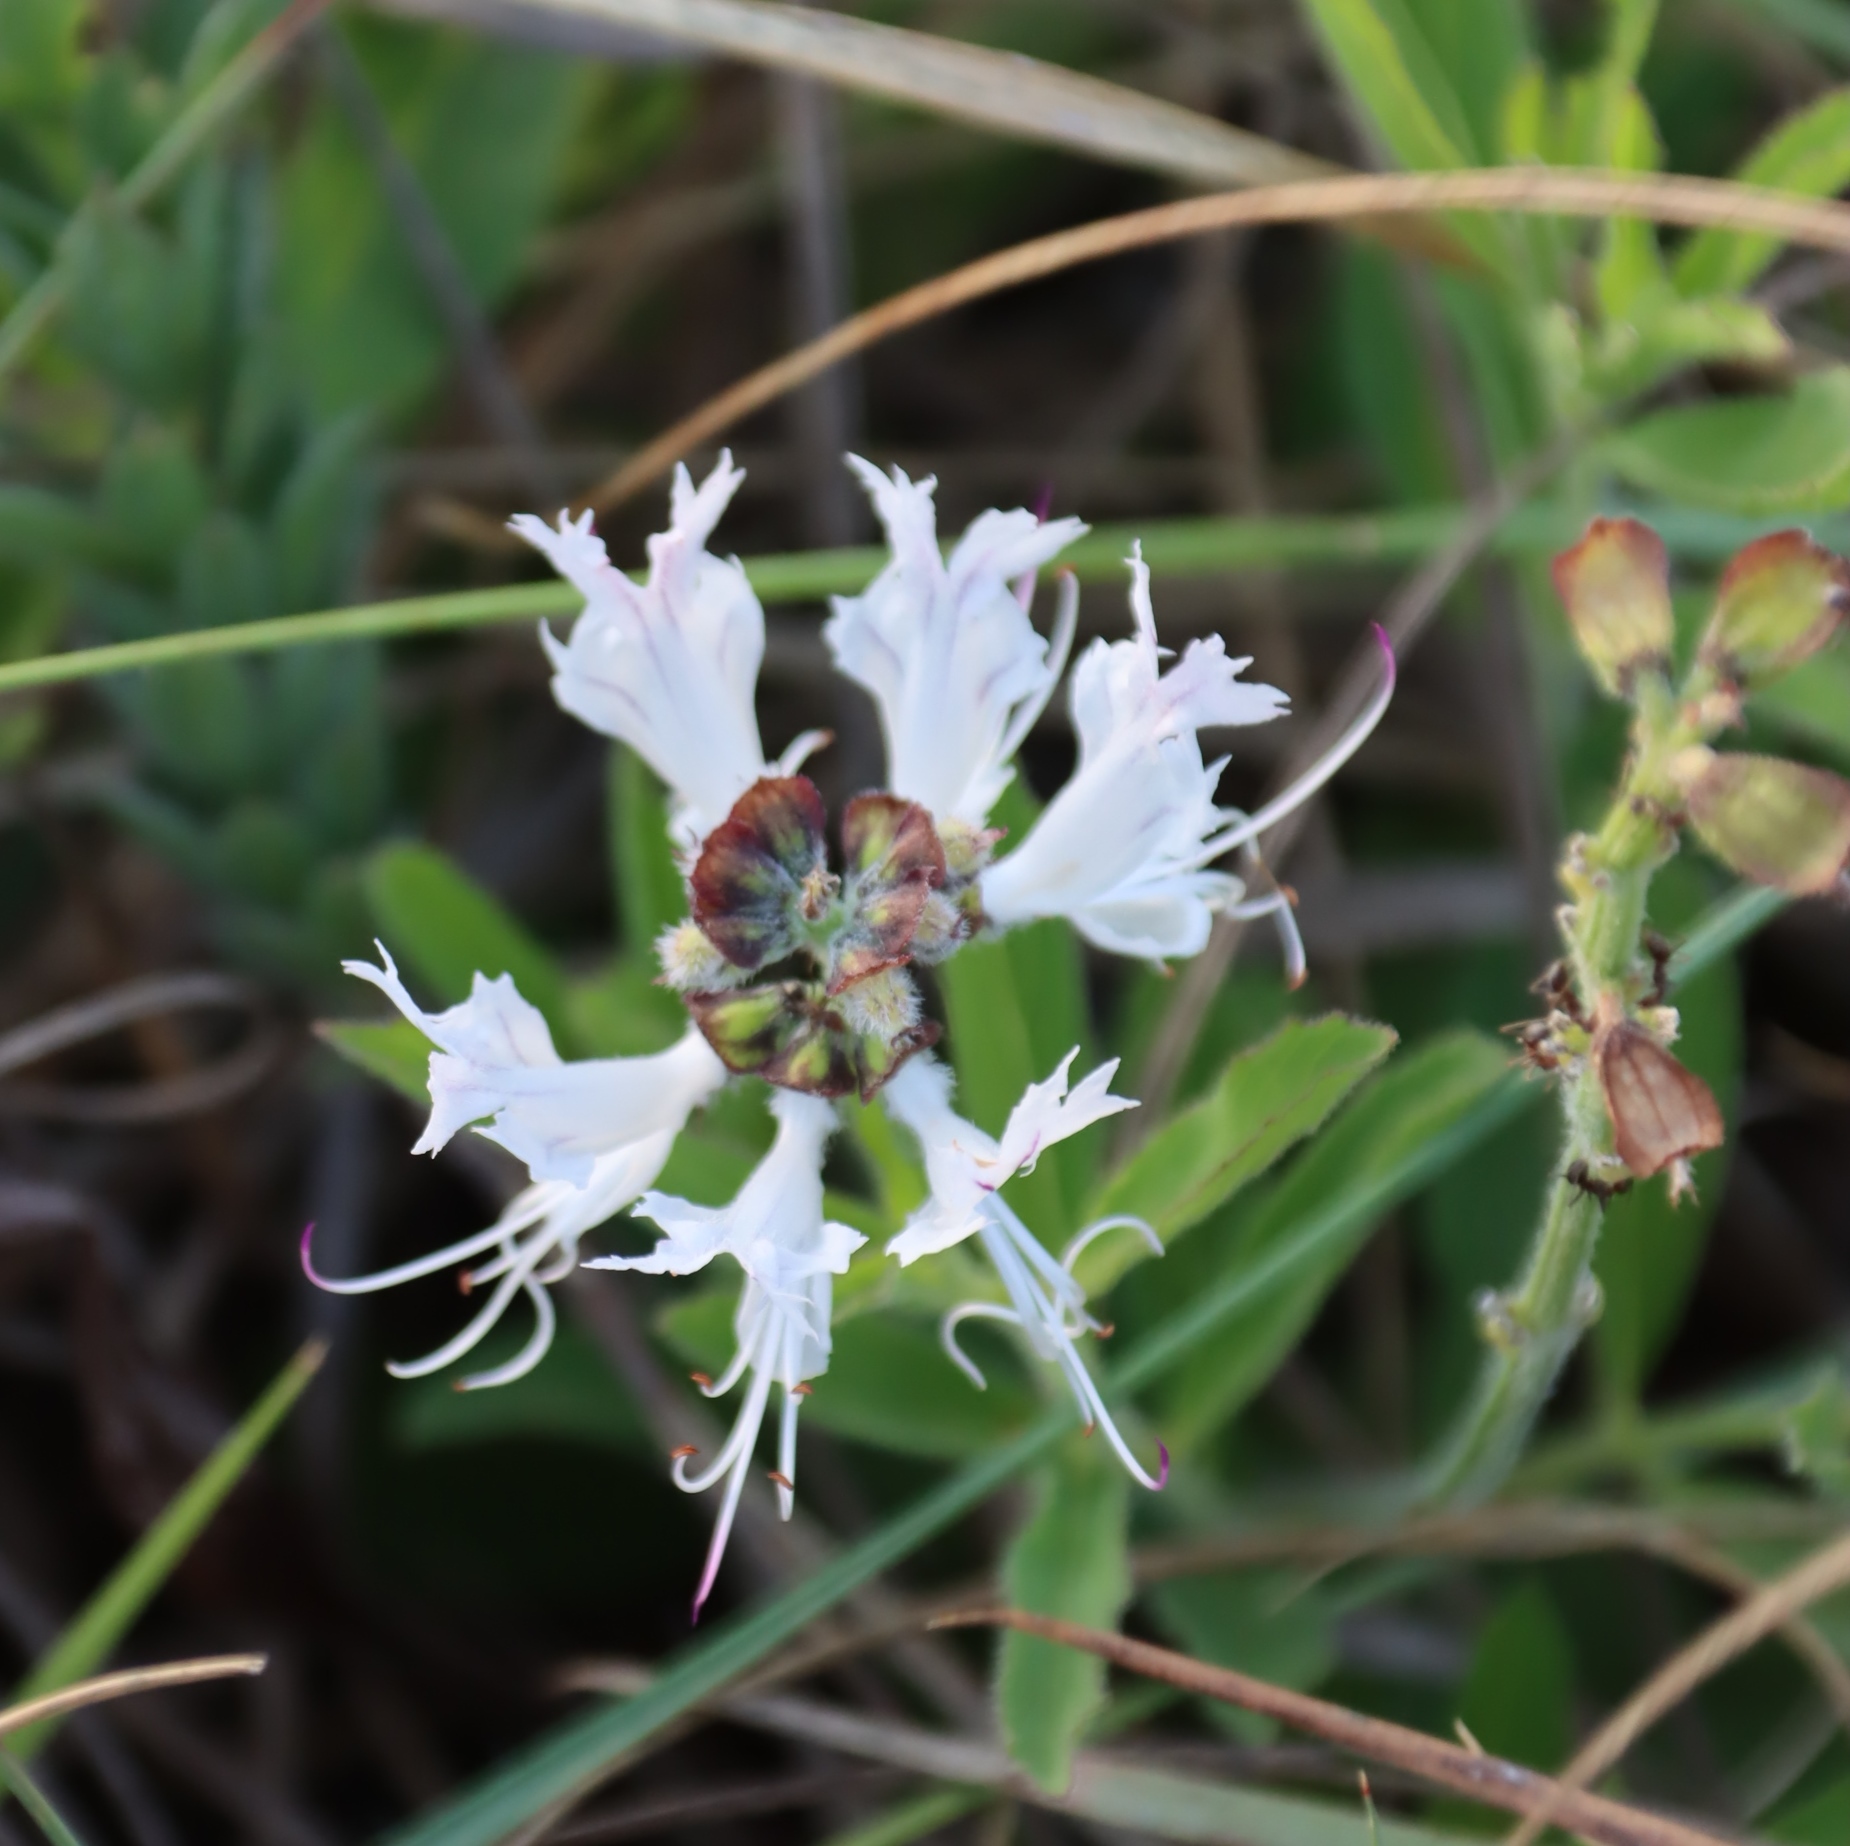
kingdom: Plantae
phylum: Tracheophyta
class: Magnoliopsida
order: Lamiales
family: Lamiaceae
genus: Ocimum
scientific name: Ocimum obovatum
